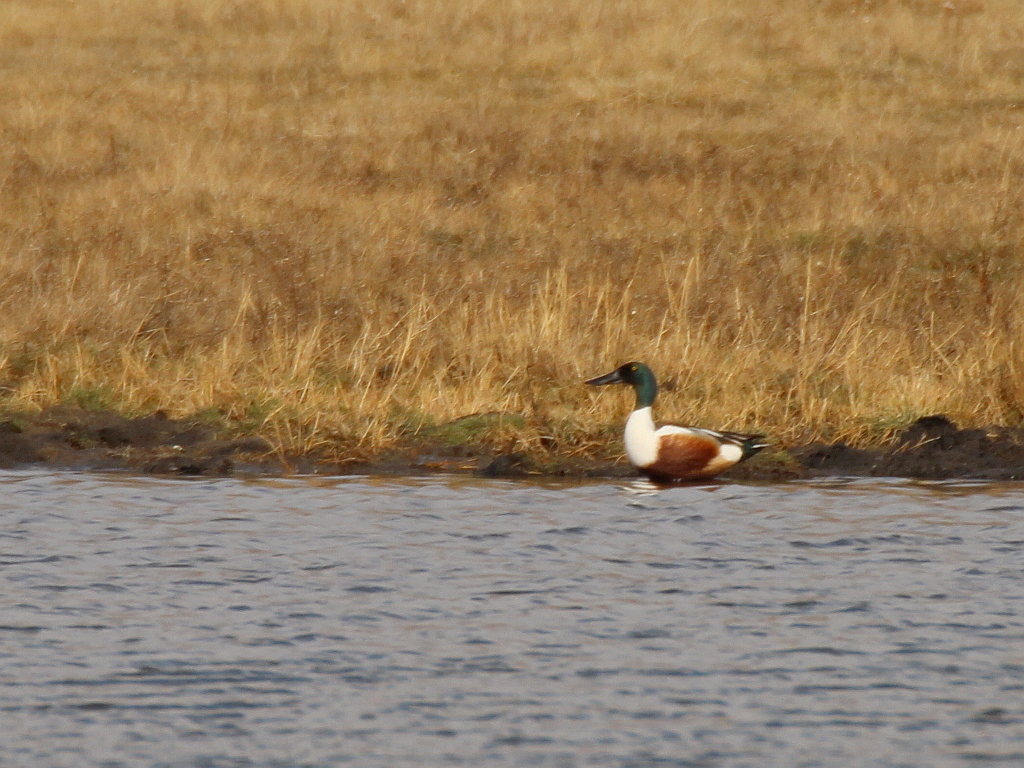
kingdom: Animalia
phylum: Chordata
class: Aves
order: Anseriformes
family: Anatidae
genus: Spatula
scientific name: Spatula clypeata
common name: Northern shoveler
